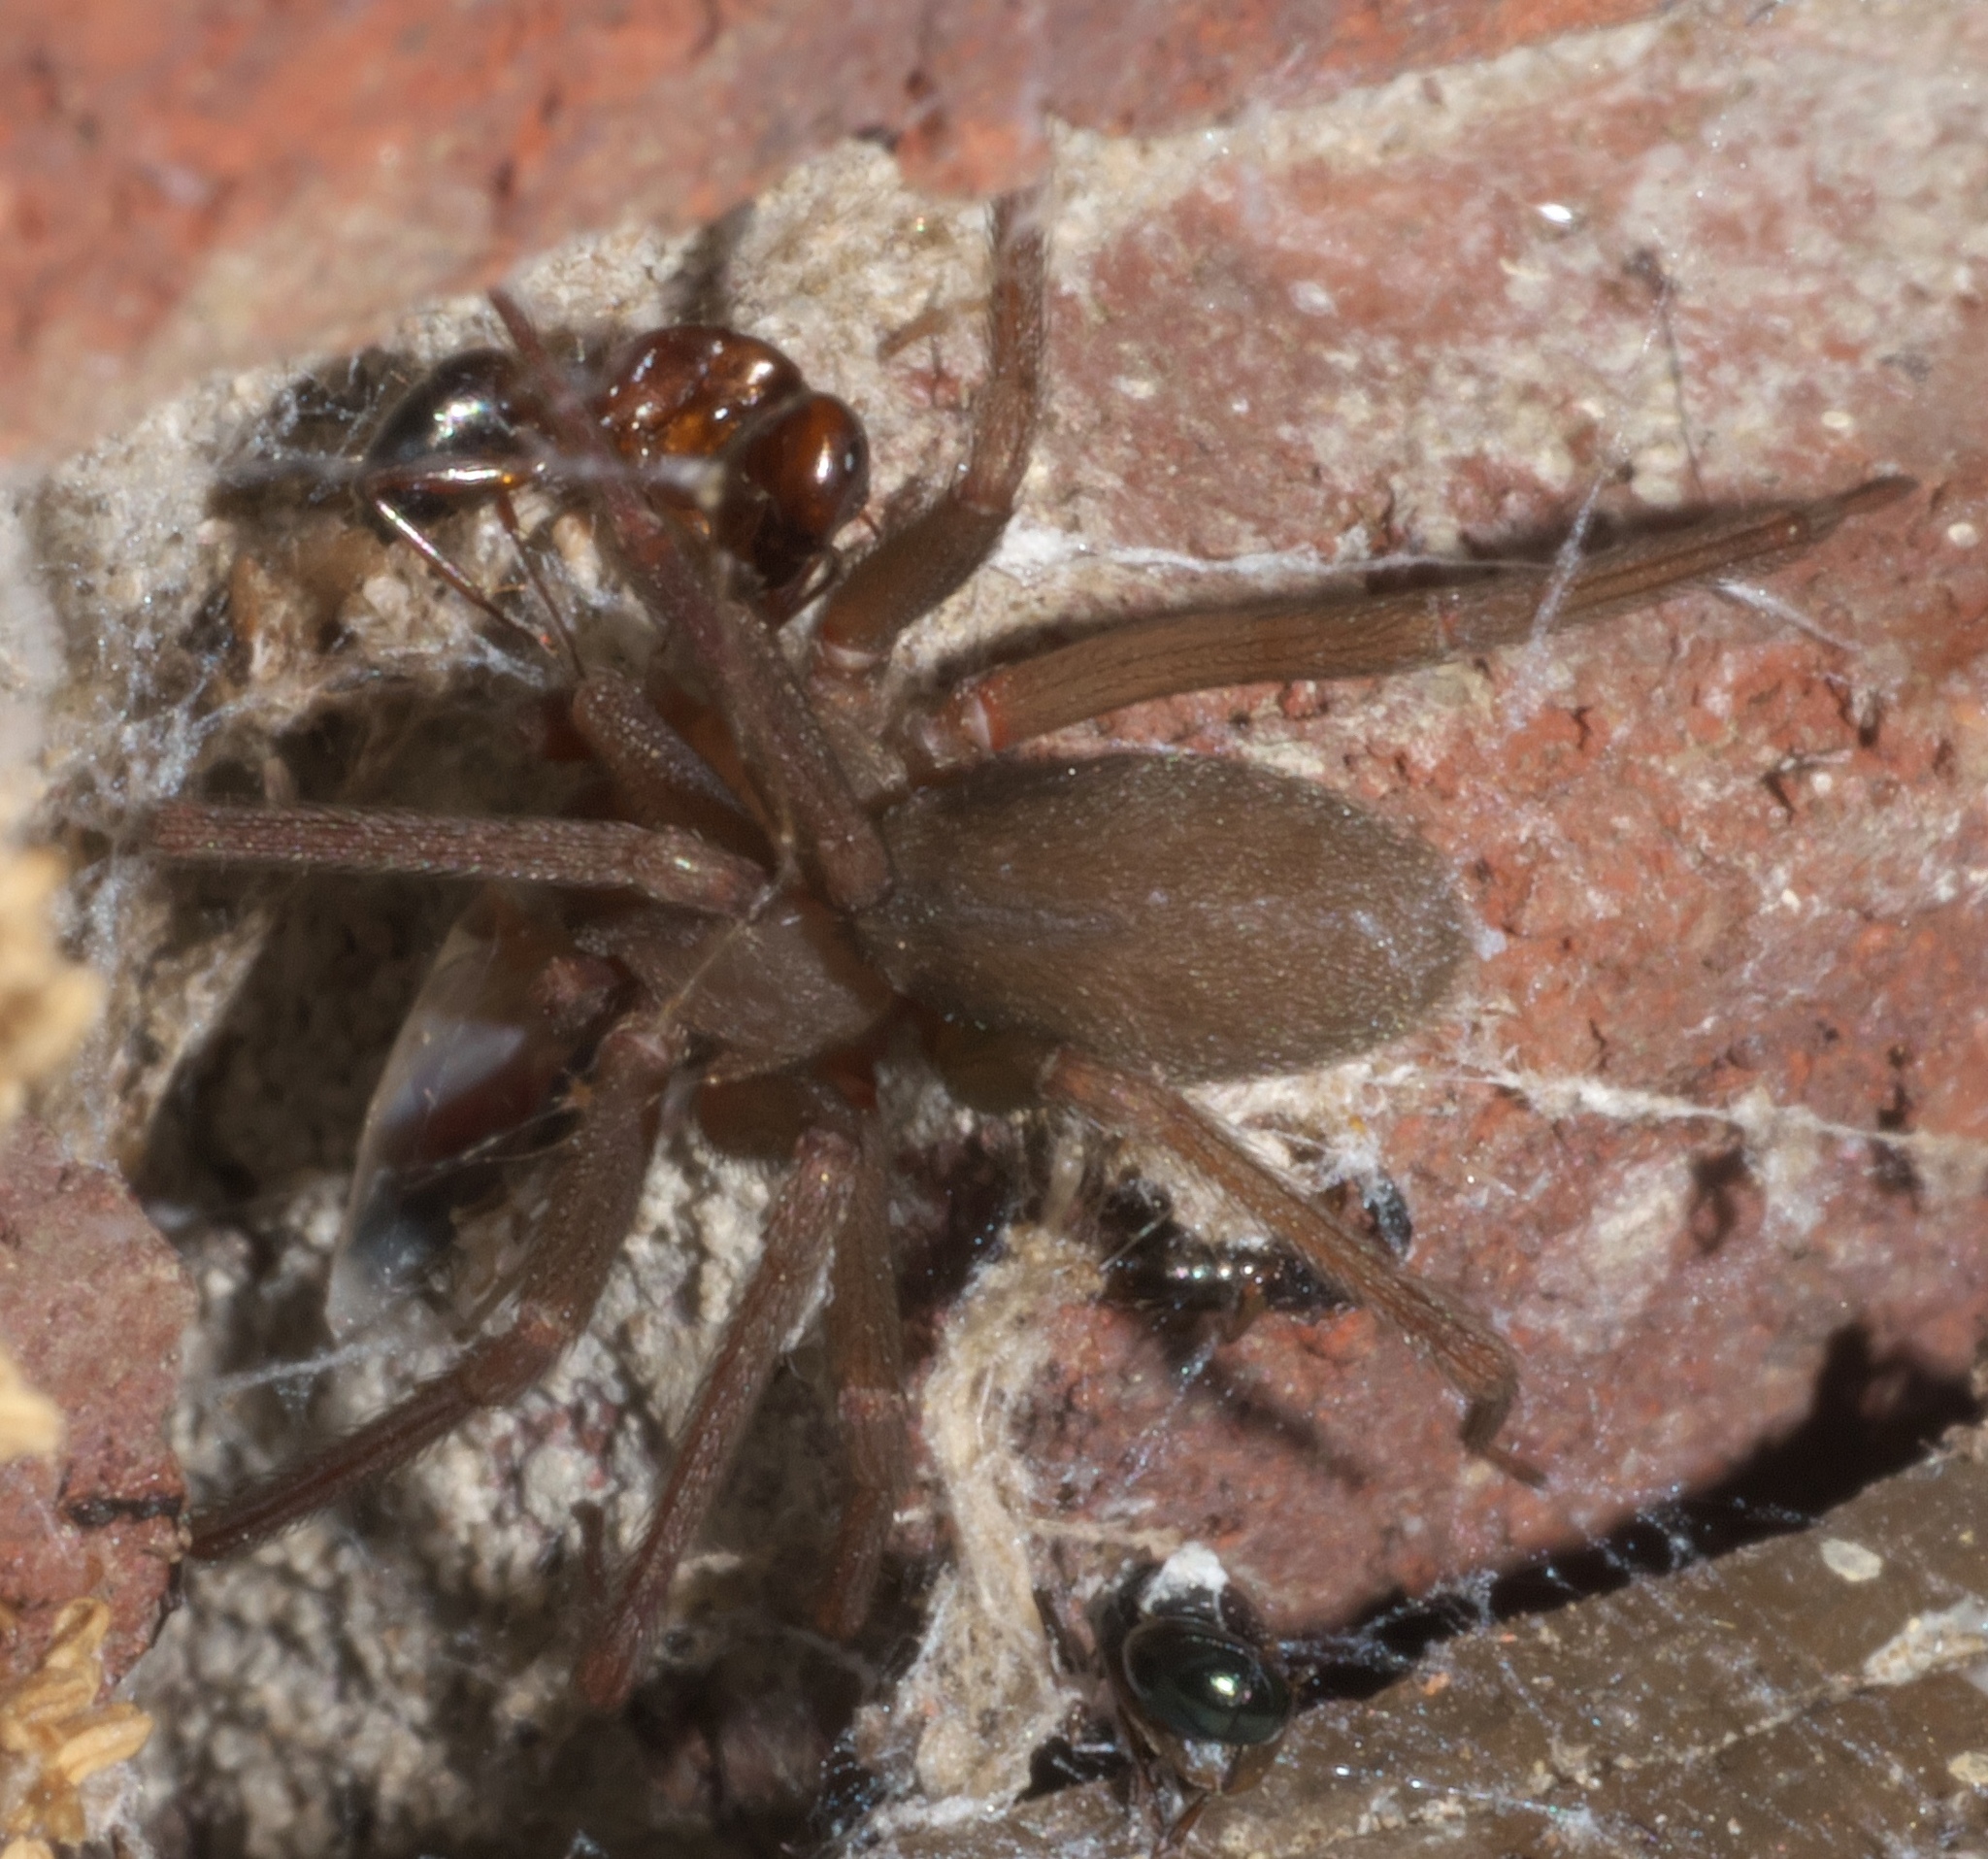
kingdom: Animalia
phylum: Arthropoda
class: Arachnida
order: Araneae
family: Sicariidae
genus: Loxosceles
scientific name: Loxosceles reclusa
